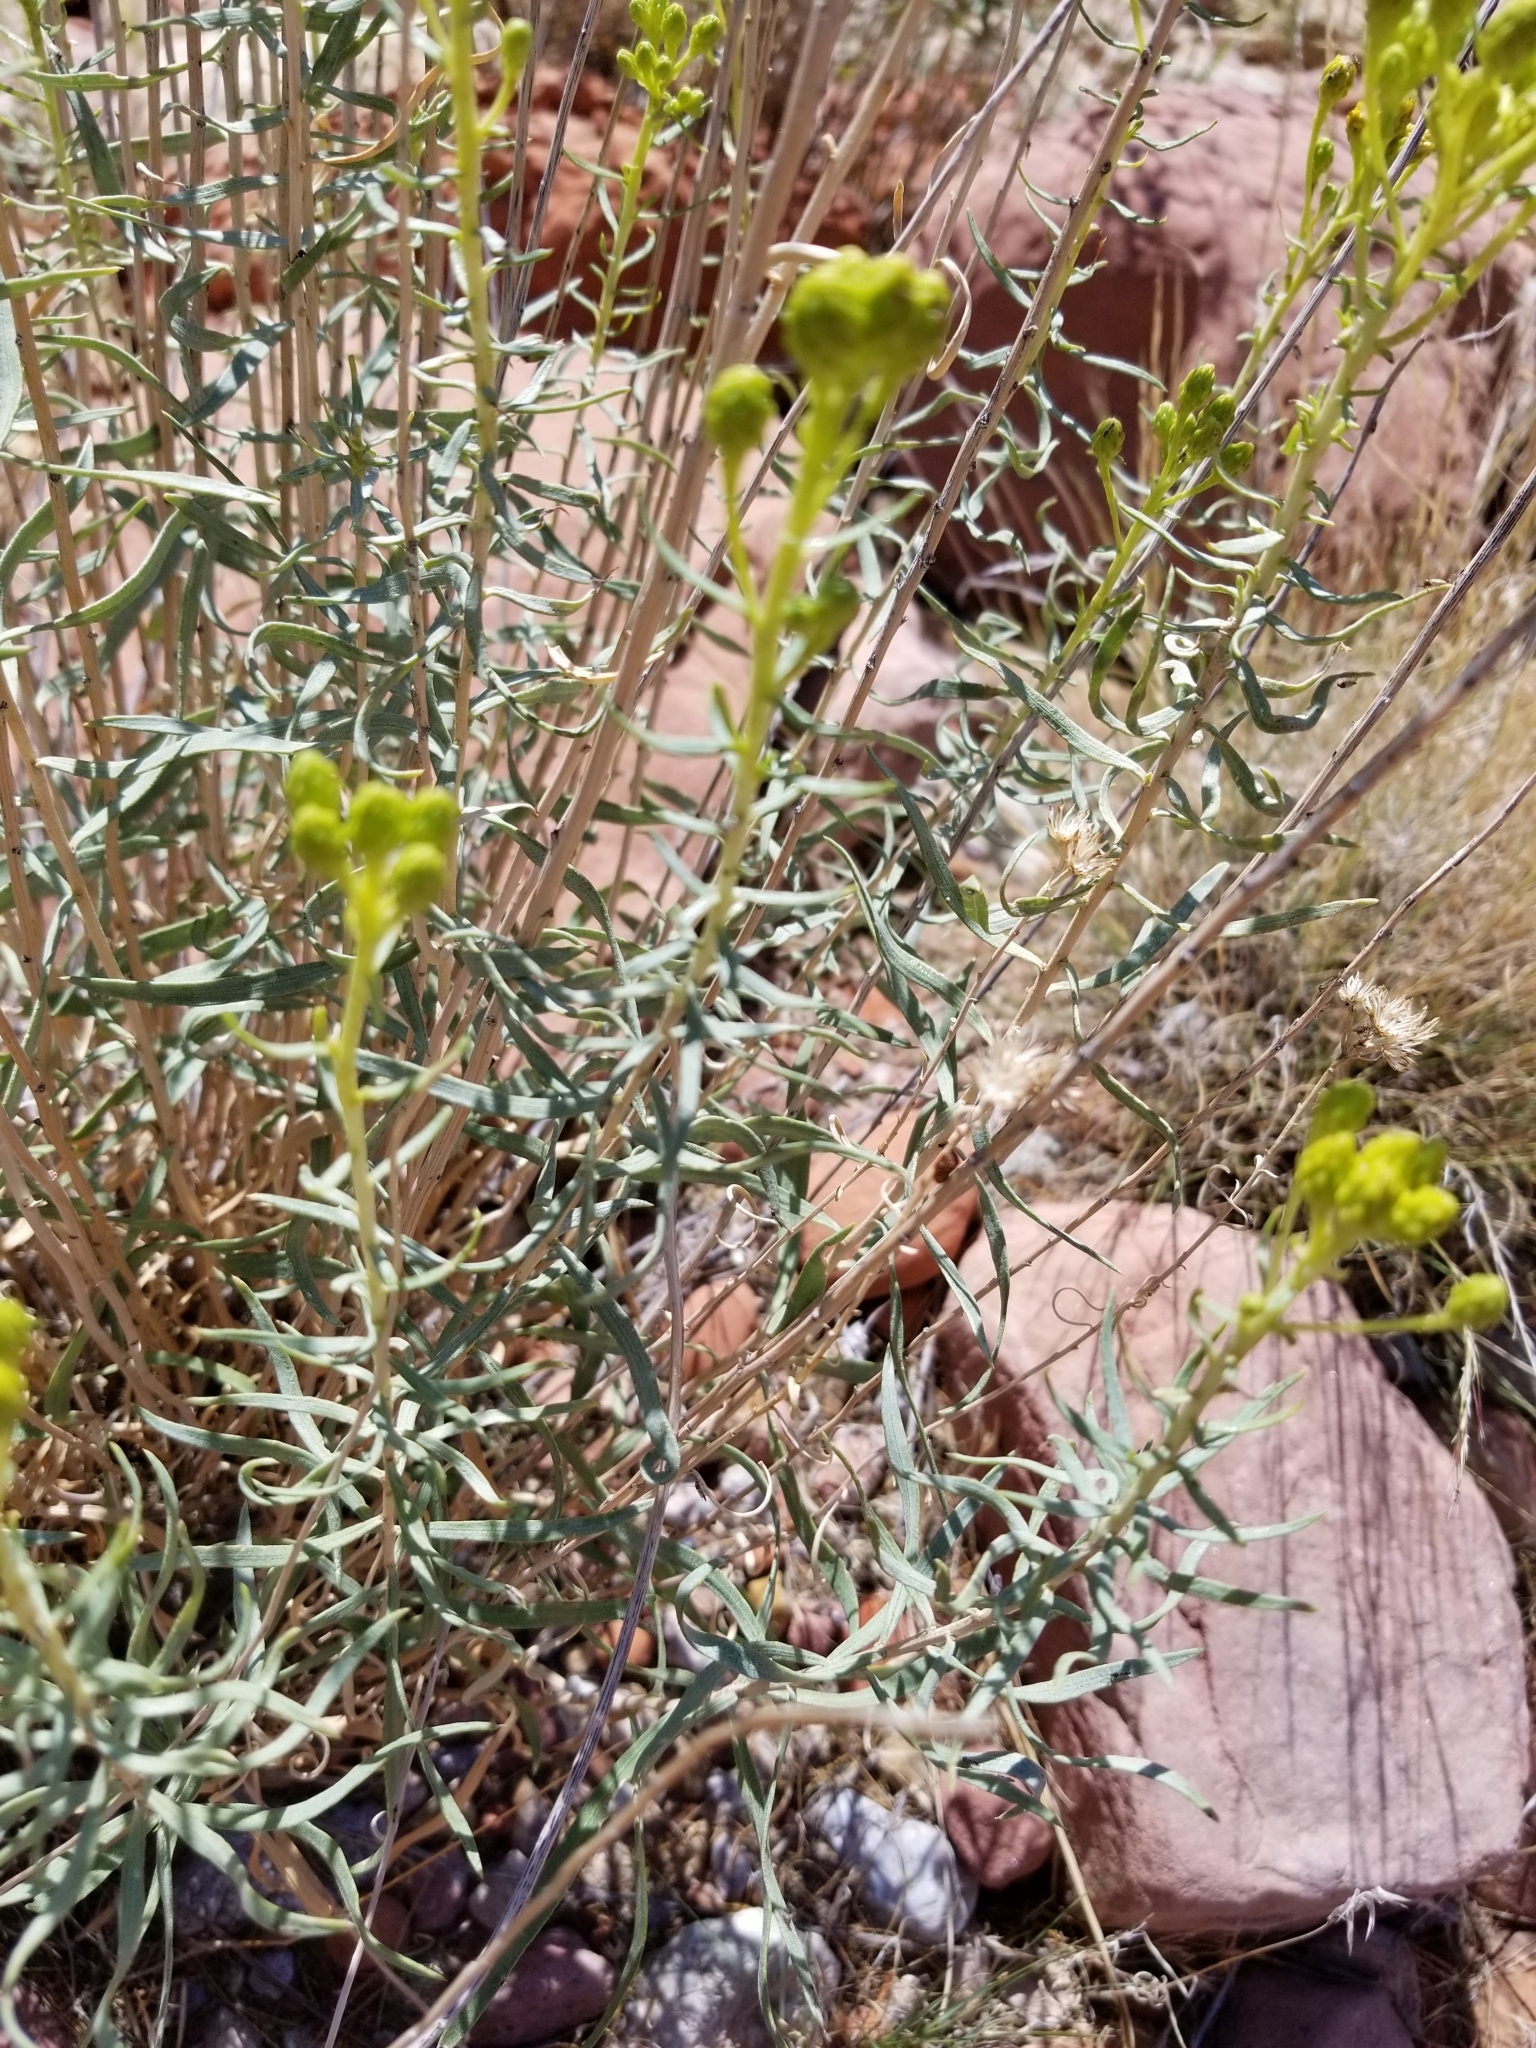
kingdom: Plantae
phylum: Tracheophyta
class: Magnoliopsida
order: Asterales
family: Asteraceae
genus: Ericameria
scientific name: Ericameria nauseosa
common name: Rubber rabbitbrush
